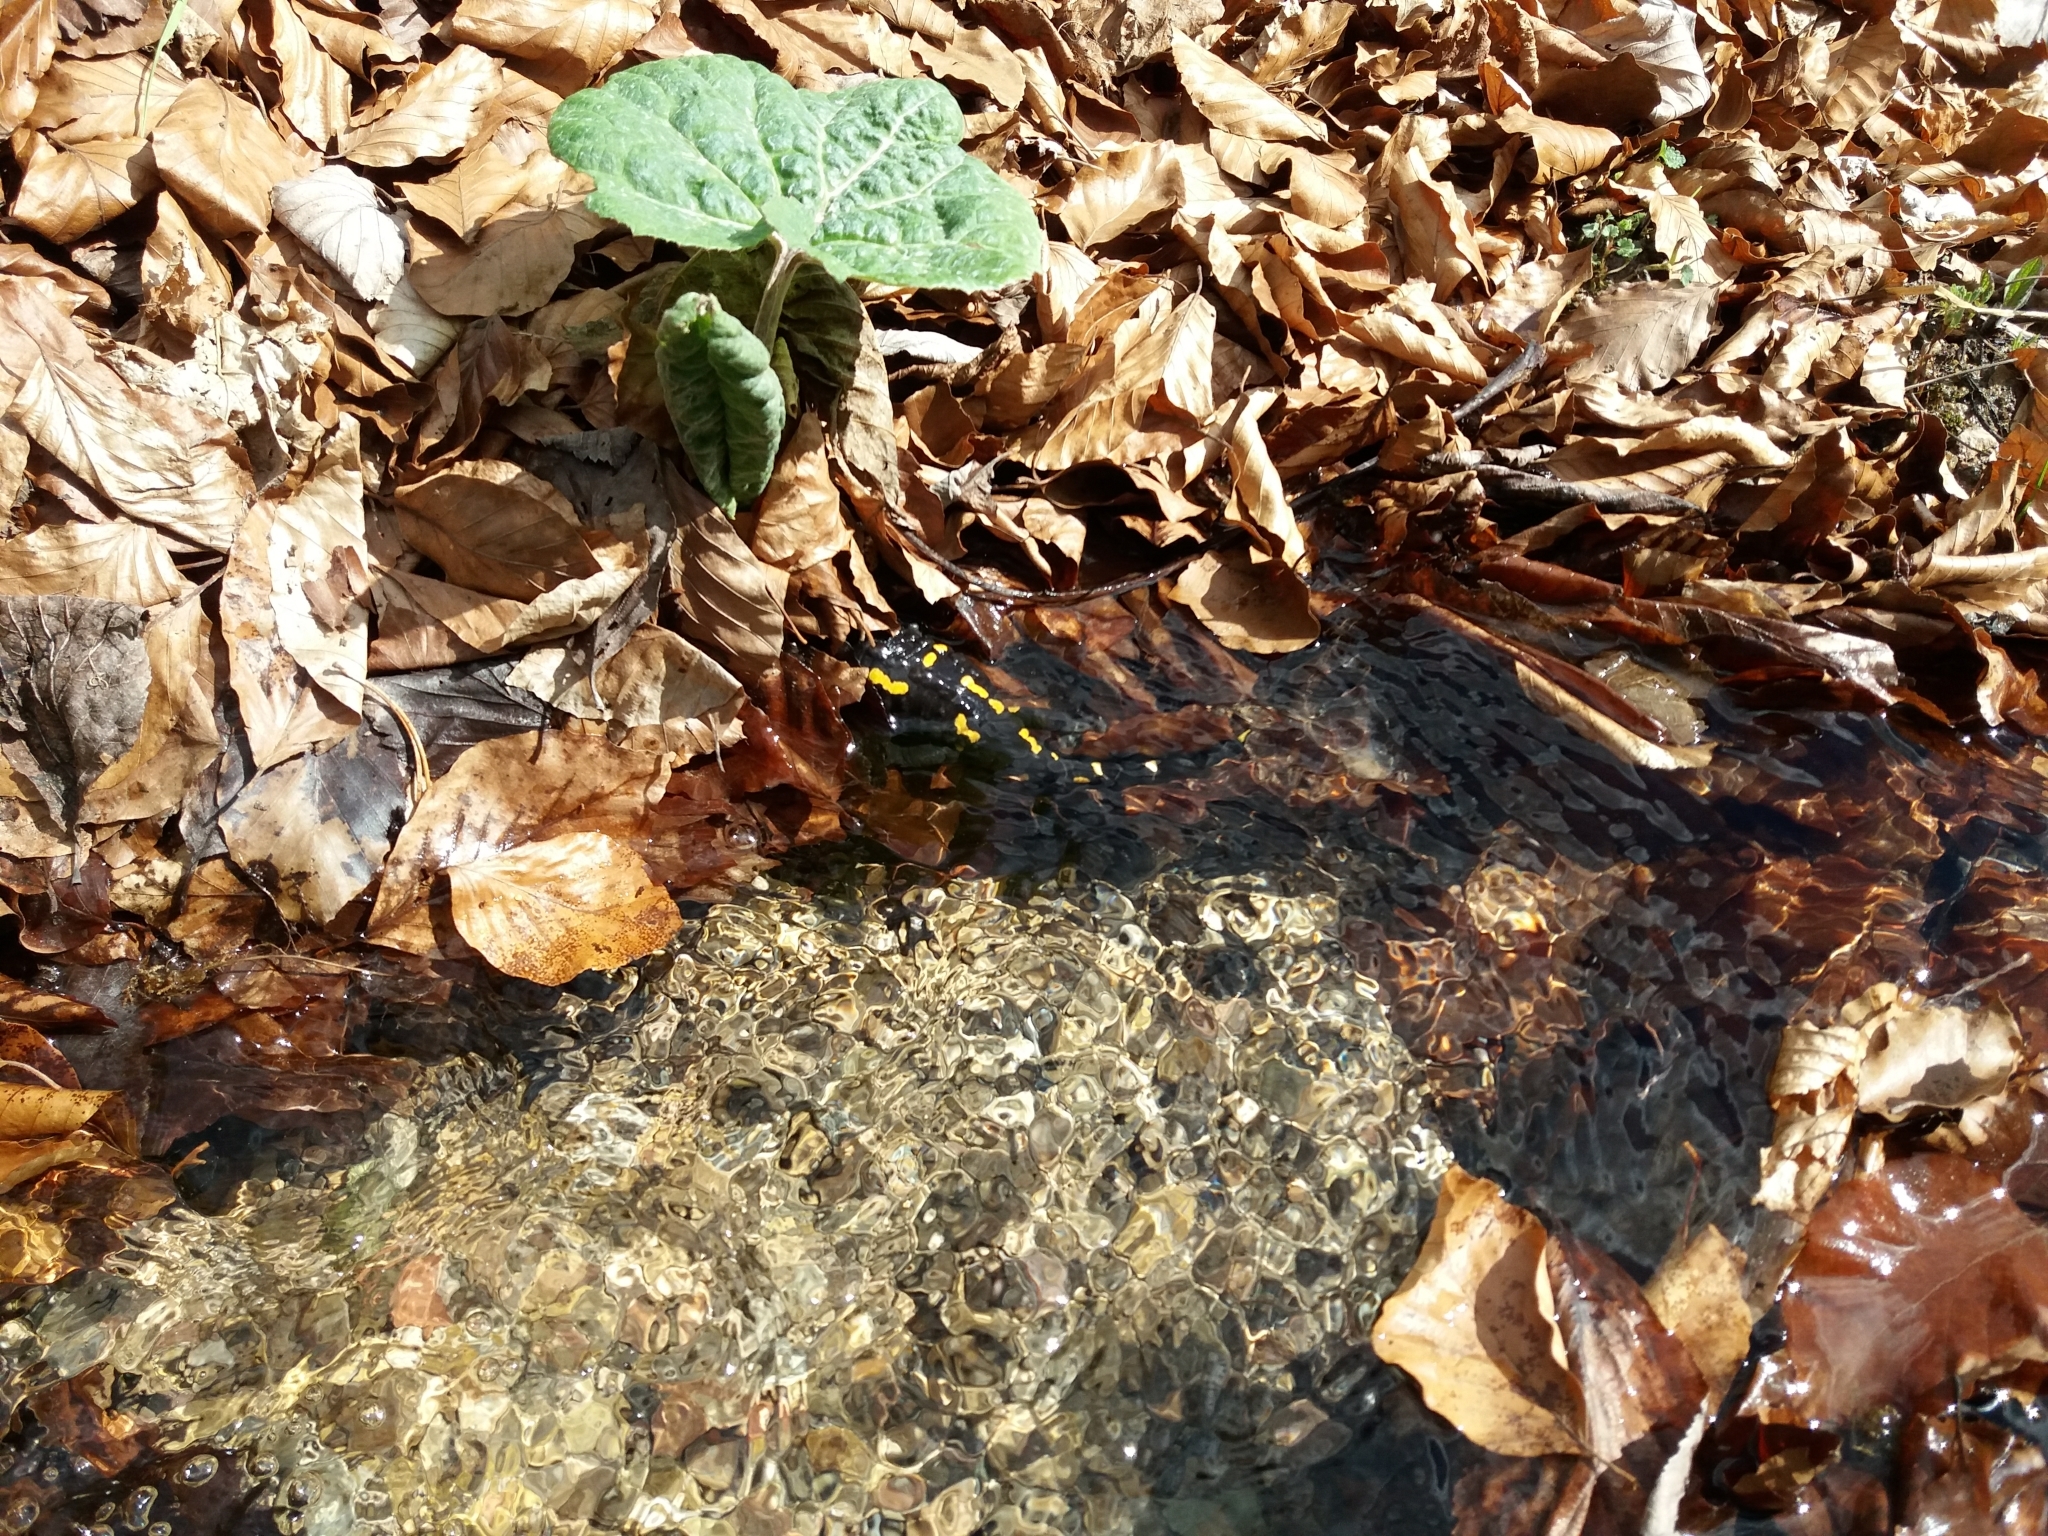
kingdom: Animalia
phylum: Chordata
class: Amphibia
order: Caudata
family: Salamandridae
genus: Salamandra
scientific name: Salamandra salamandra
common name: Fire salamander
